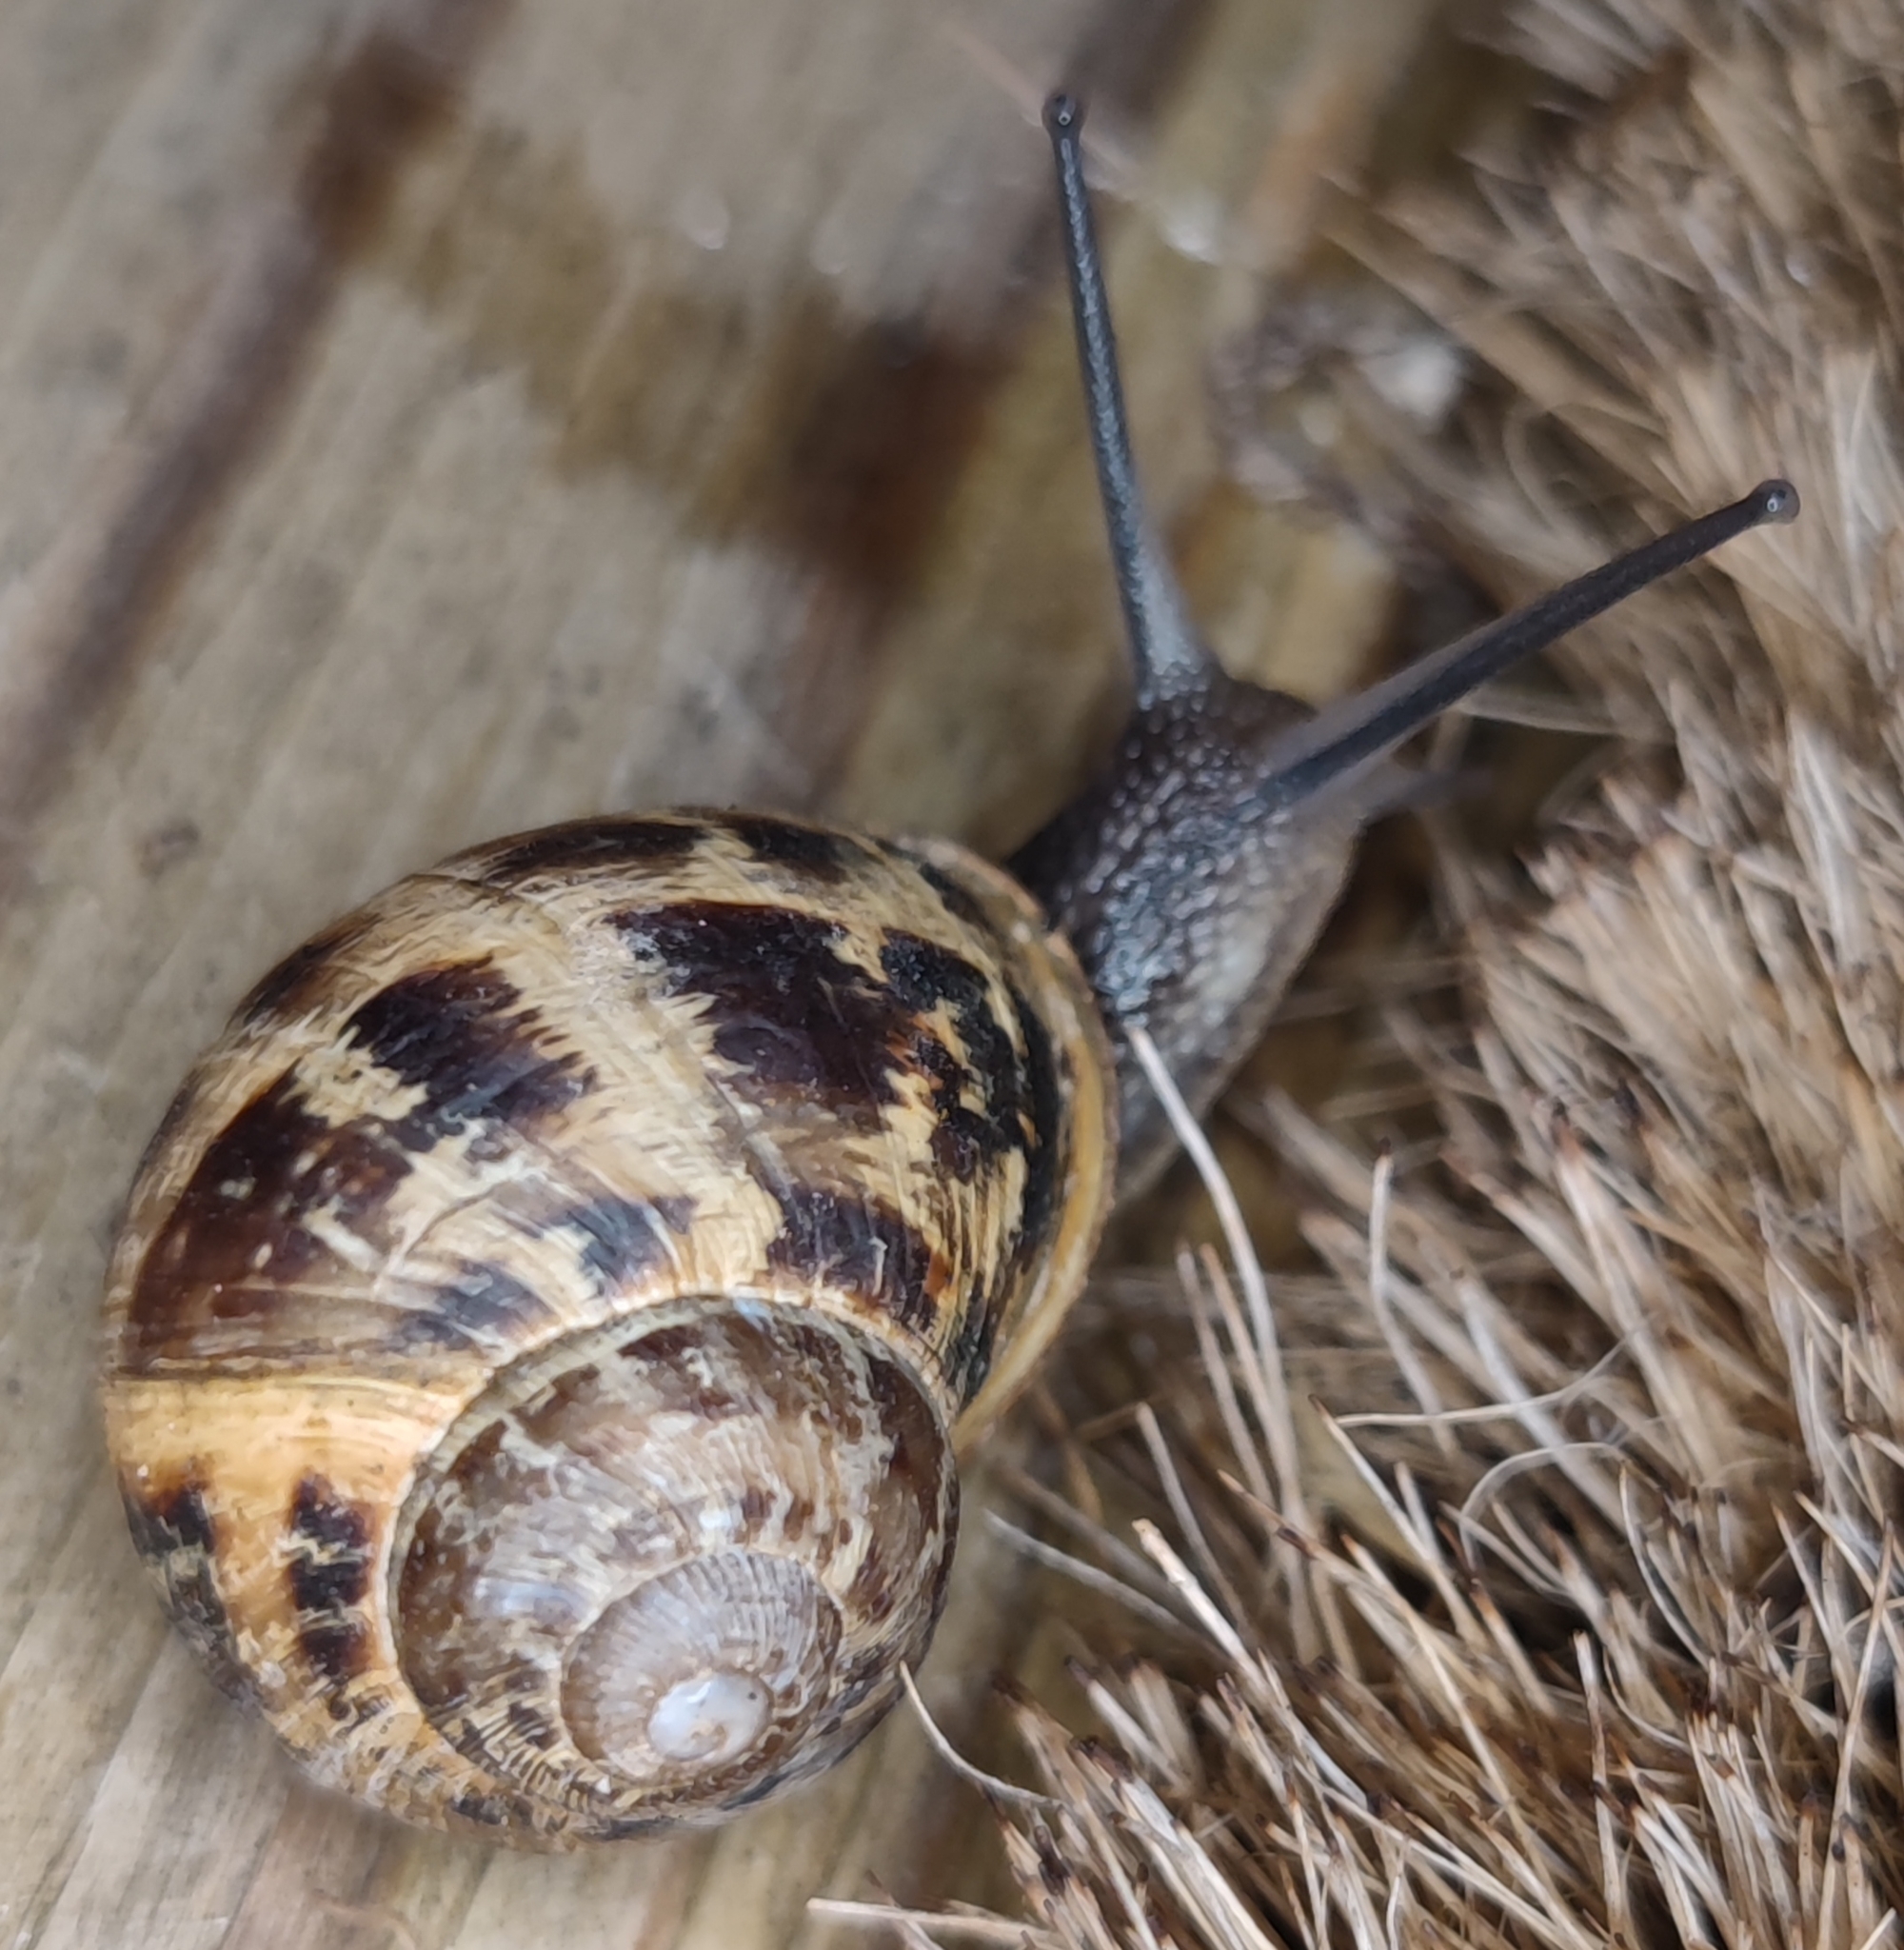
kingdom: Animalia
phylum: Mollusca
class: Gastropoda
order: Stylommatophora
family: Helicidae
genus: Cornu
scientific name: Cornu aspersum
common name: Brown garden snail
